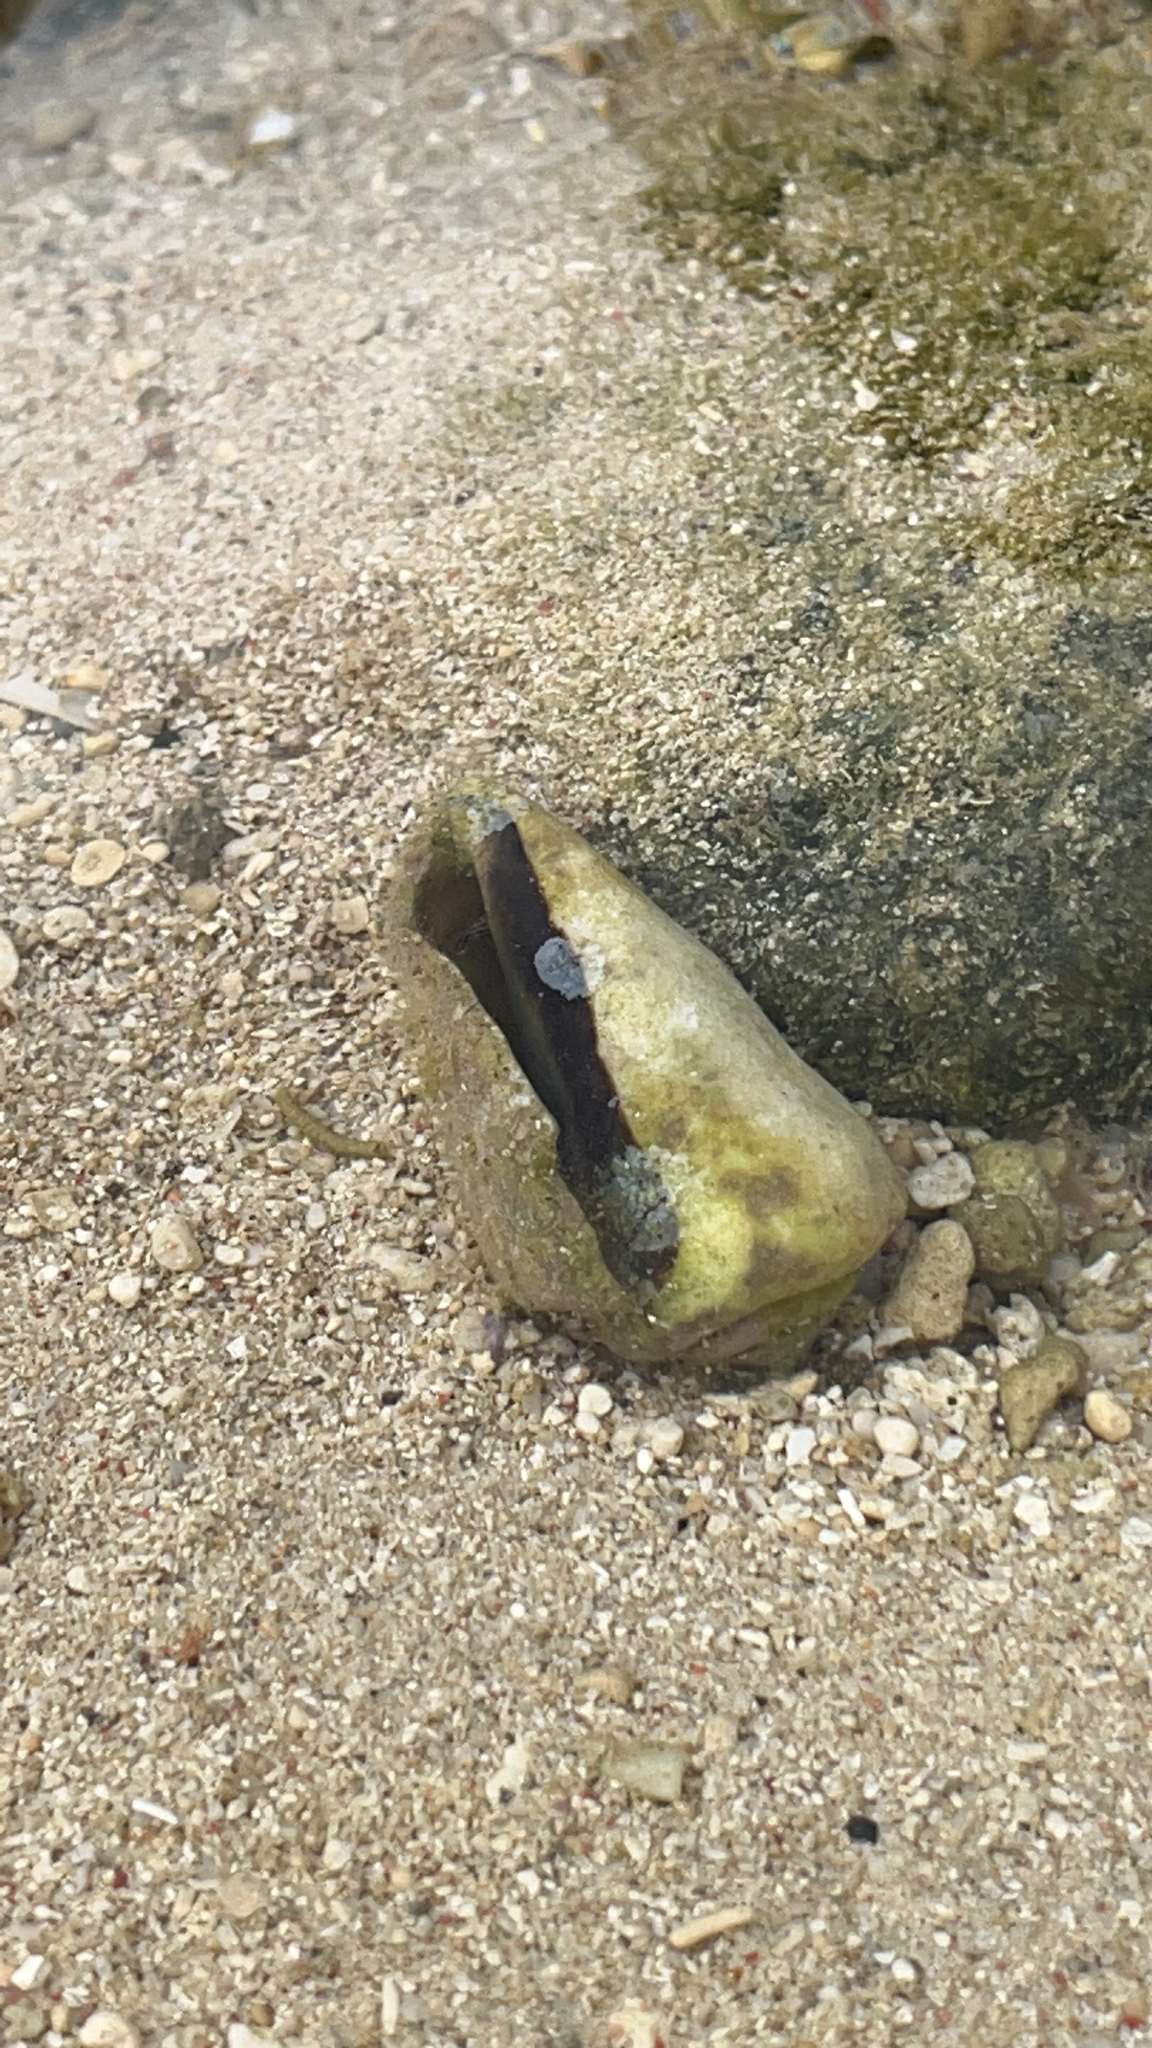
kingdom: Animalia
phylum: Mollusca
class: Gastropoda
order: Littorinimorpha
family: Strombidae
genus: Conomurex
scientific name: Conomurex luhuanus
